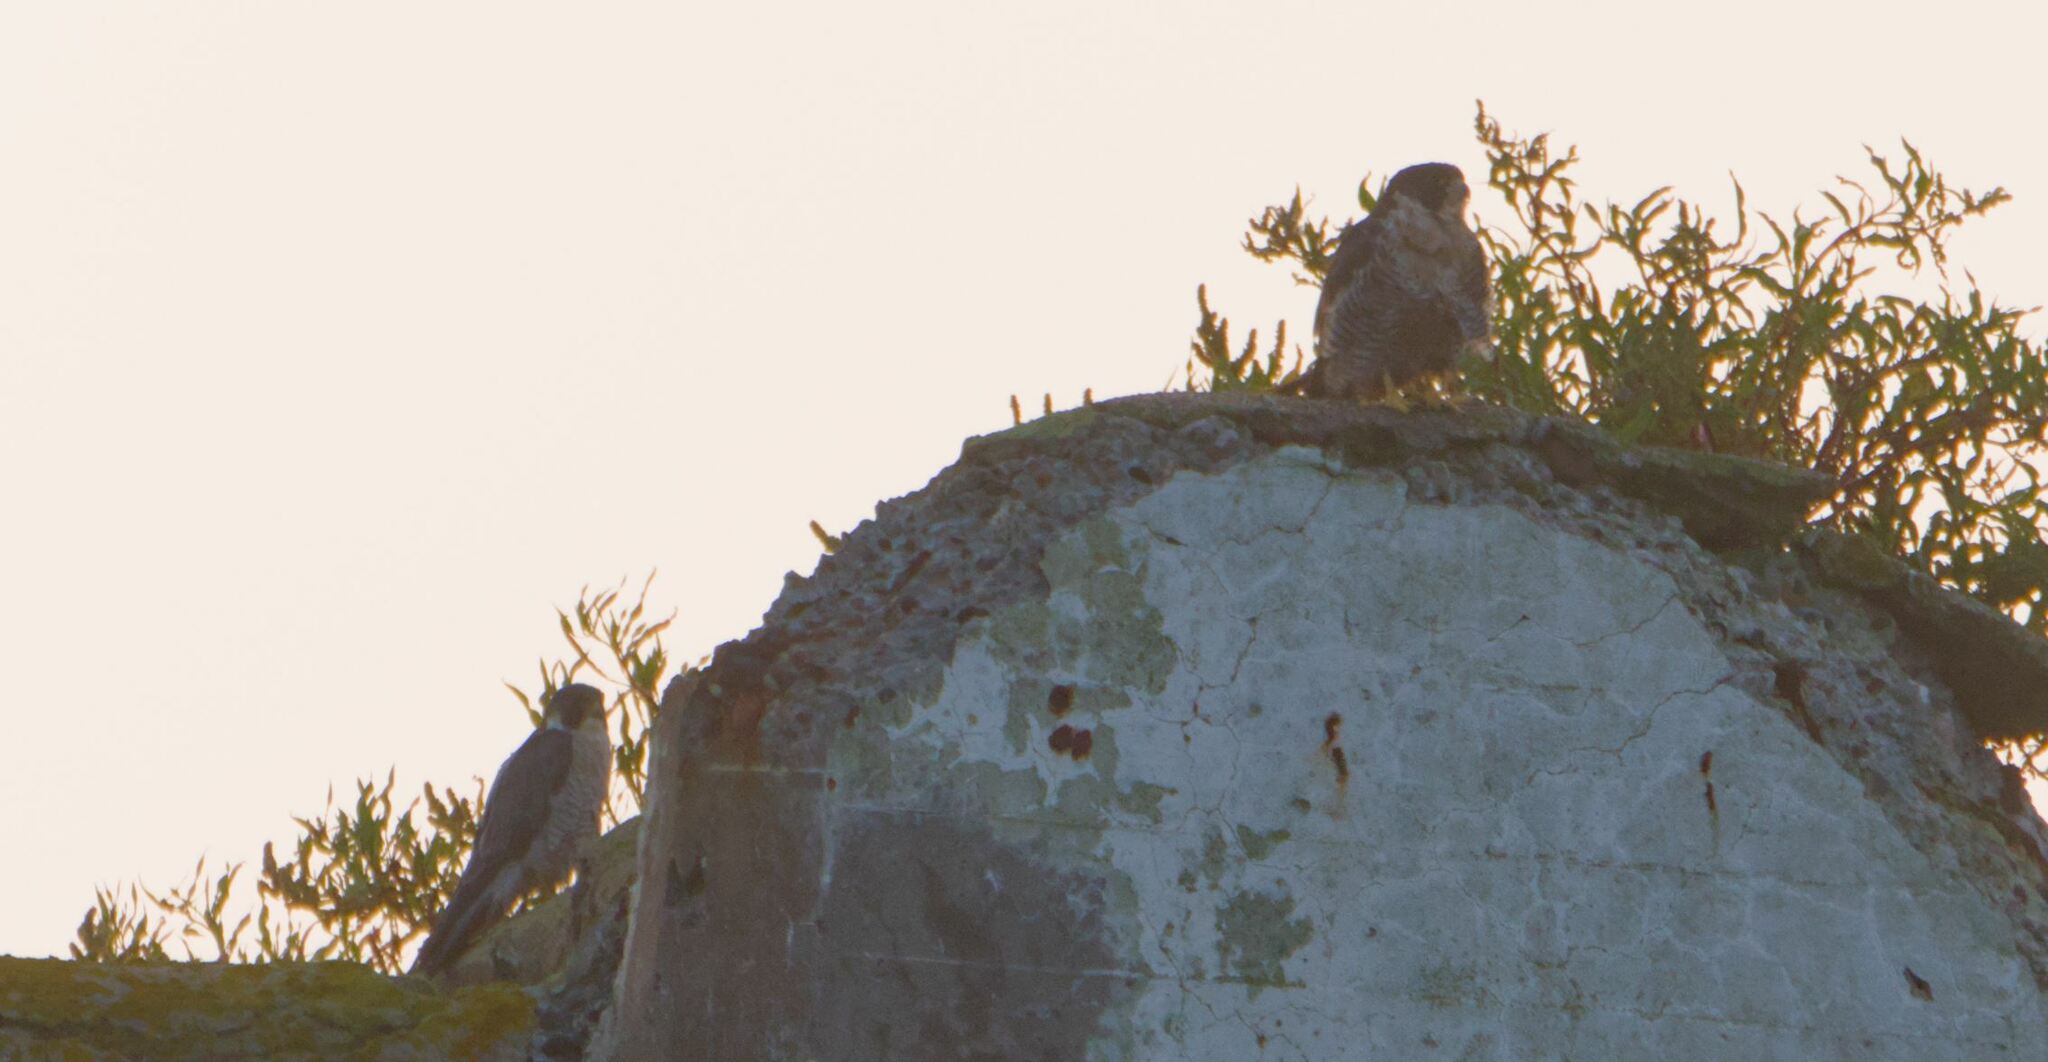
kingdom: Animalia
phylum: Chordata
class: Aves
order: Falconiformes
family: Falconidae
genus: Falco
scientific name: Falco peregrinus
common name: Peregrine falcon
